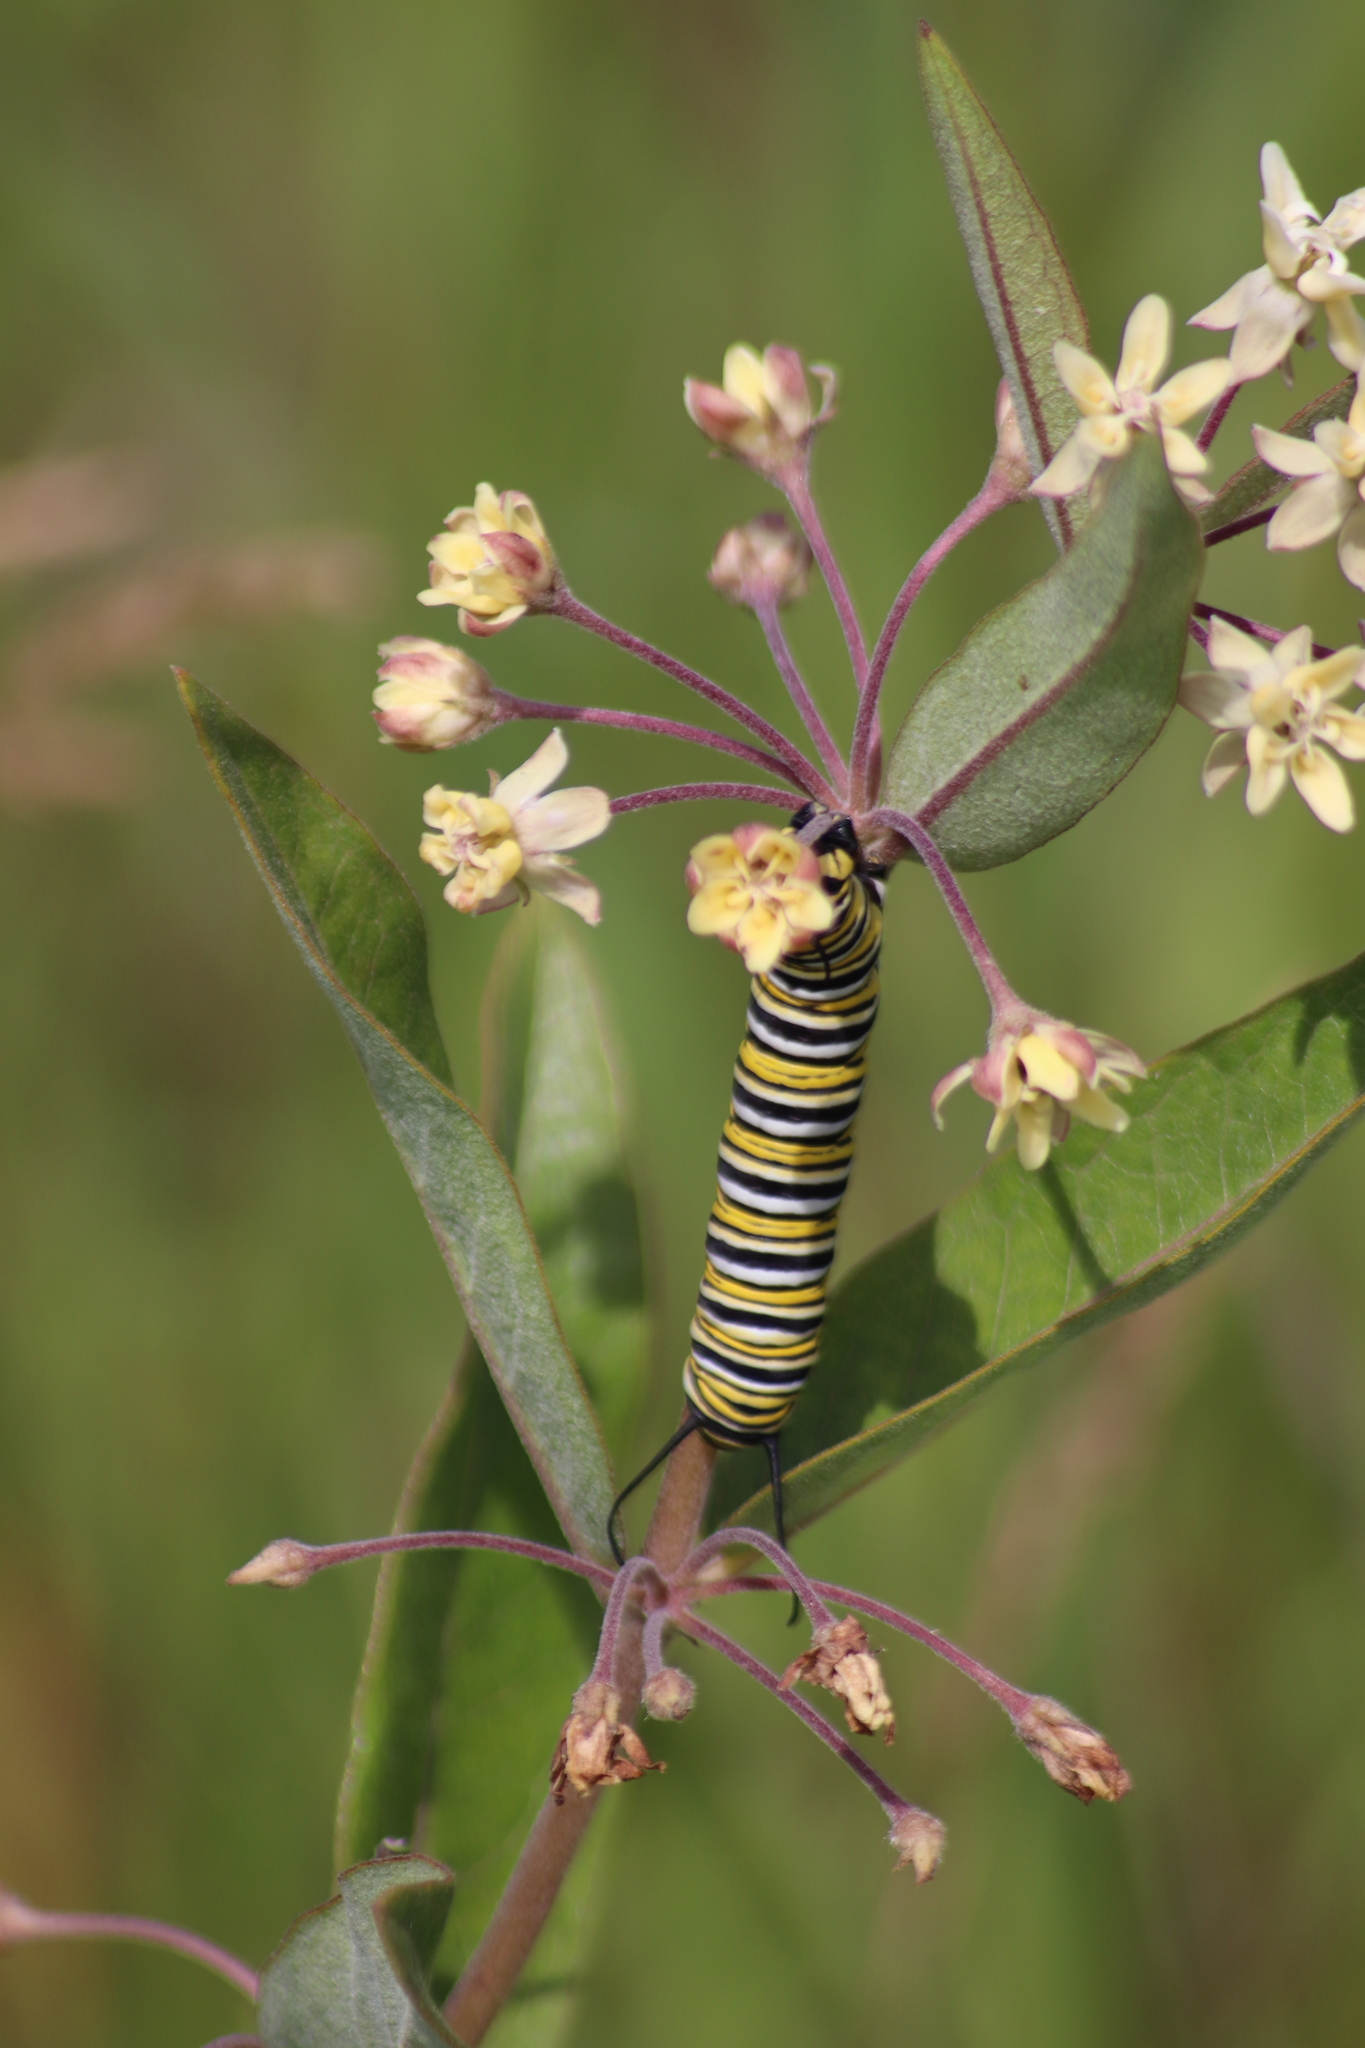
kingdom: Plantae
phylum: Tracheophyta
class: Magnoliopsida
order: Gentianales
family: Apocynaceae
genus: Asclepias
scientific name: Asclepias ovalifolia
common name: Dwarf milkweed
